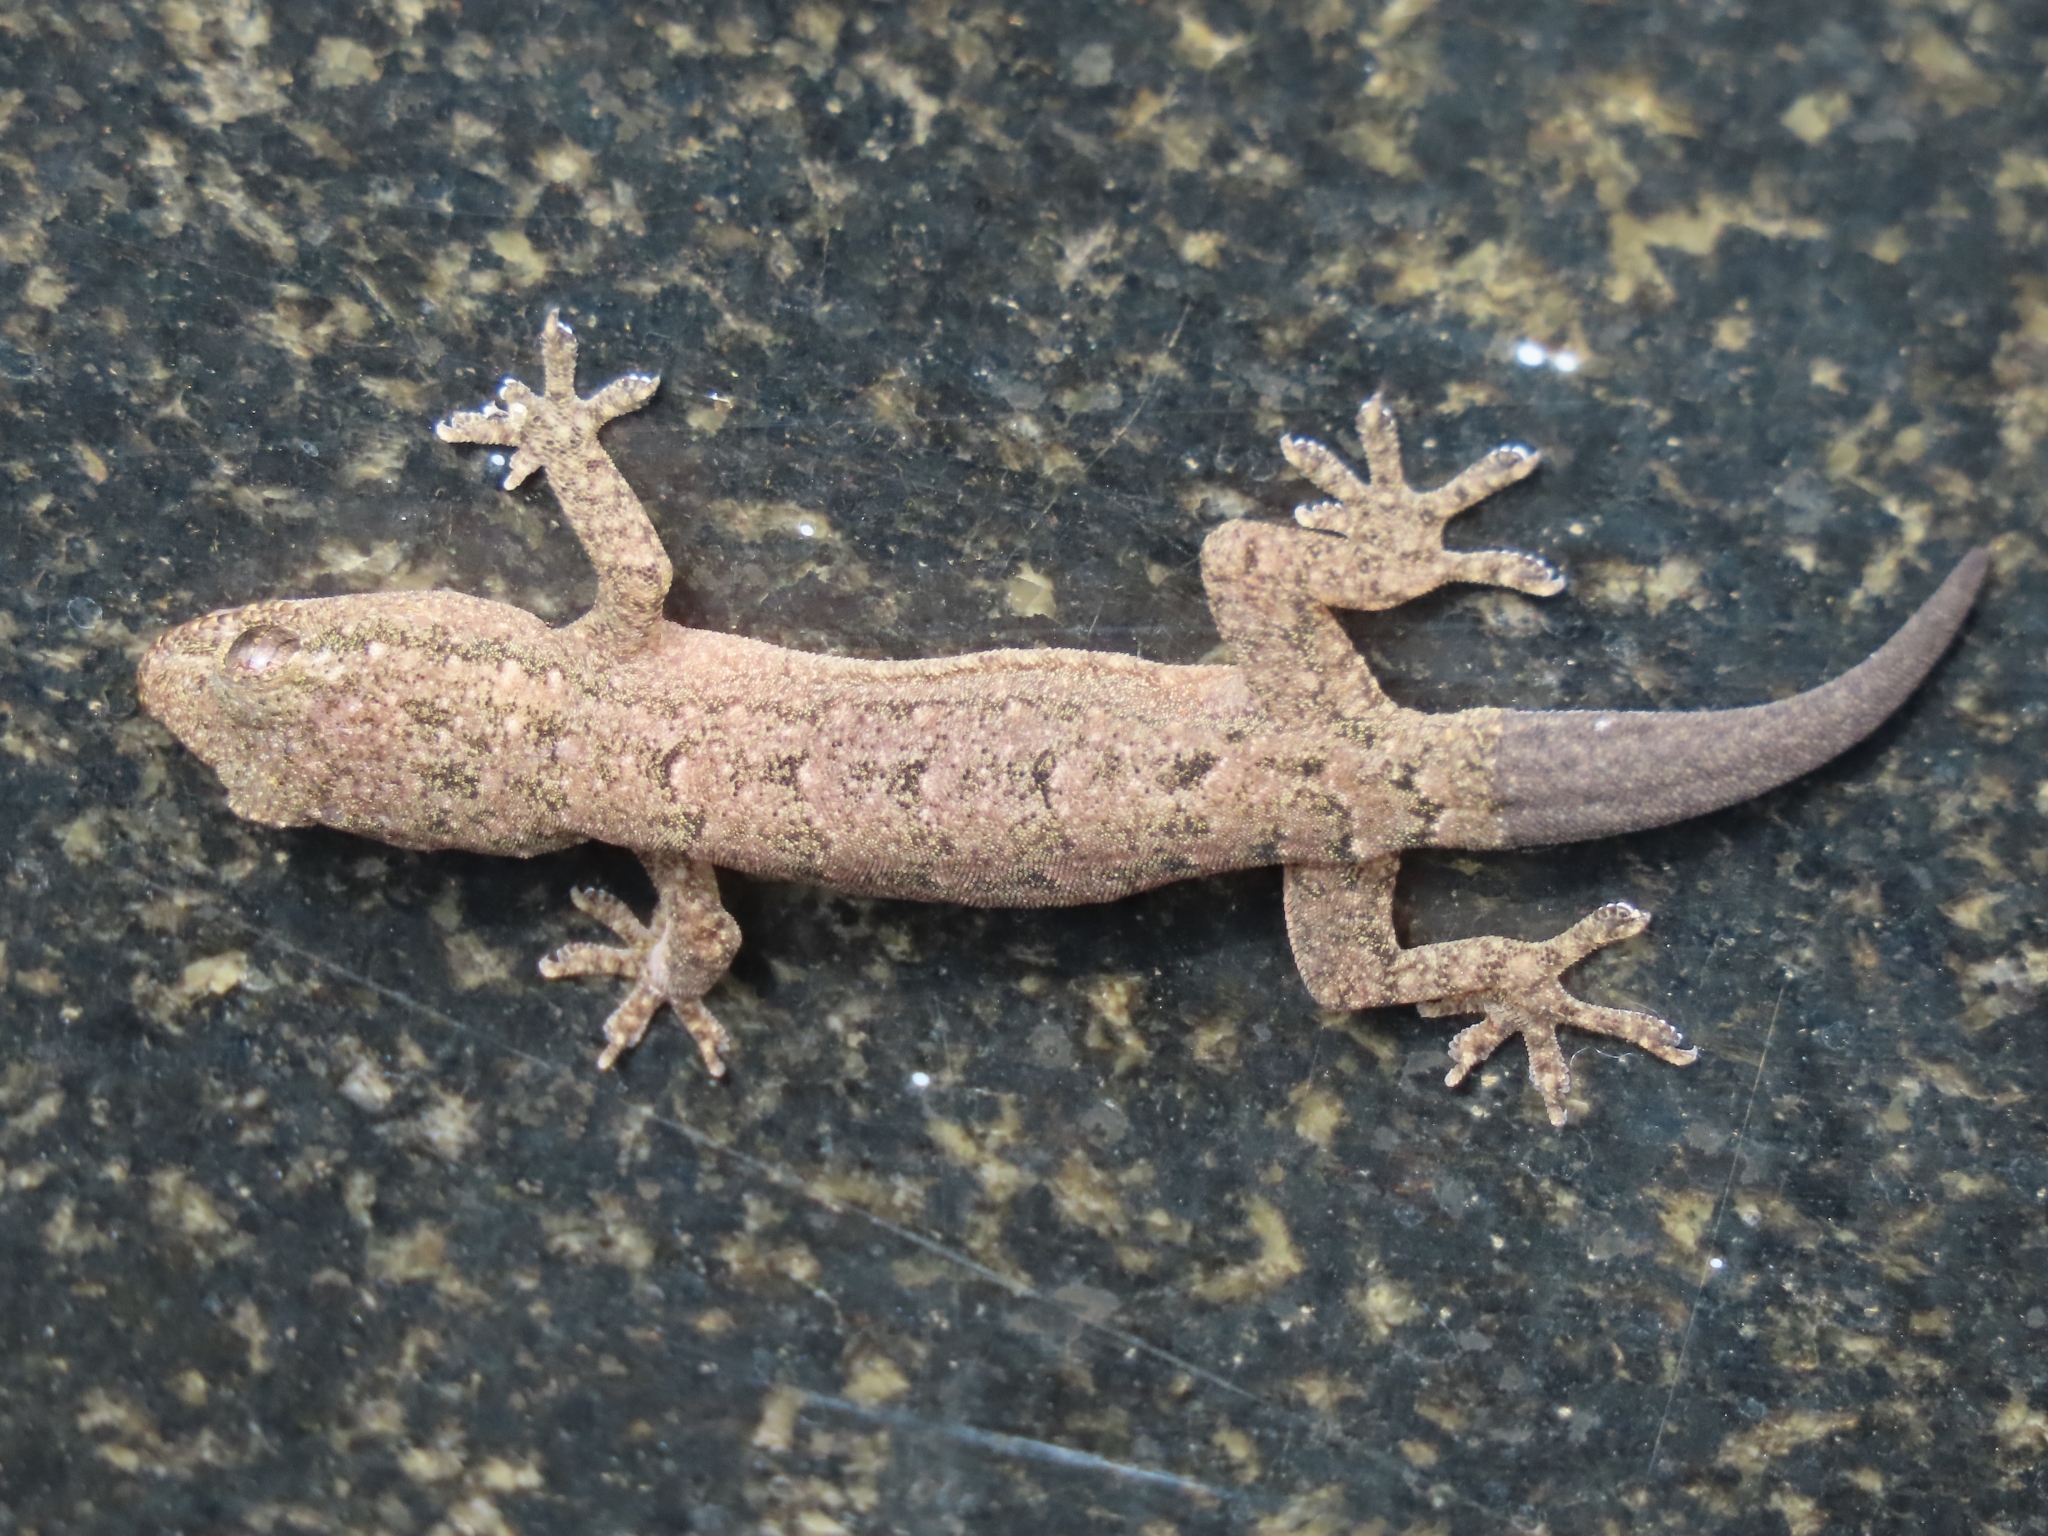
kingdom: Animalia
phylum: Chordata
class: Squamata
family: Gekkonidae
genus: Hemidactylus
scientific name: Hemidactylus bowringii
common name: Oriental leaf-toed gecko
